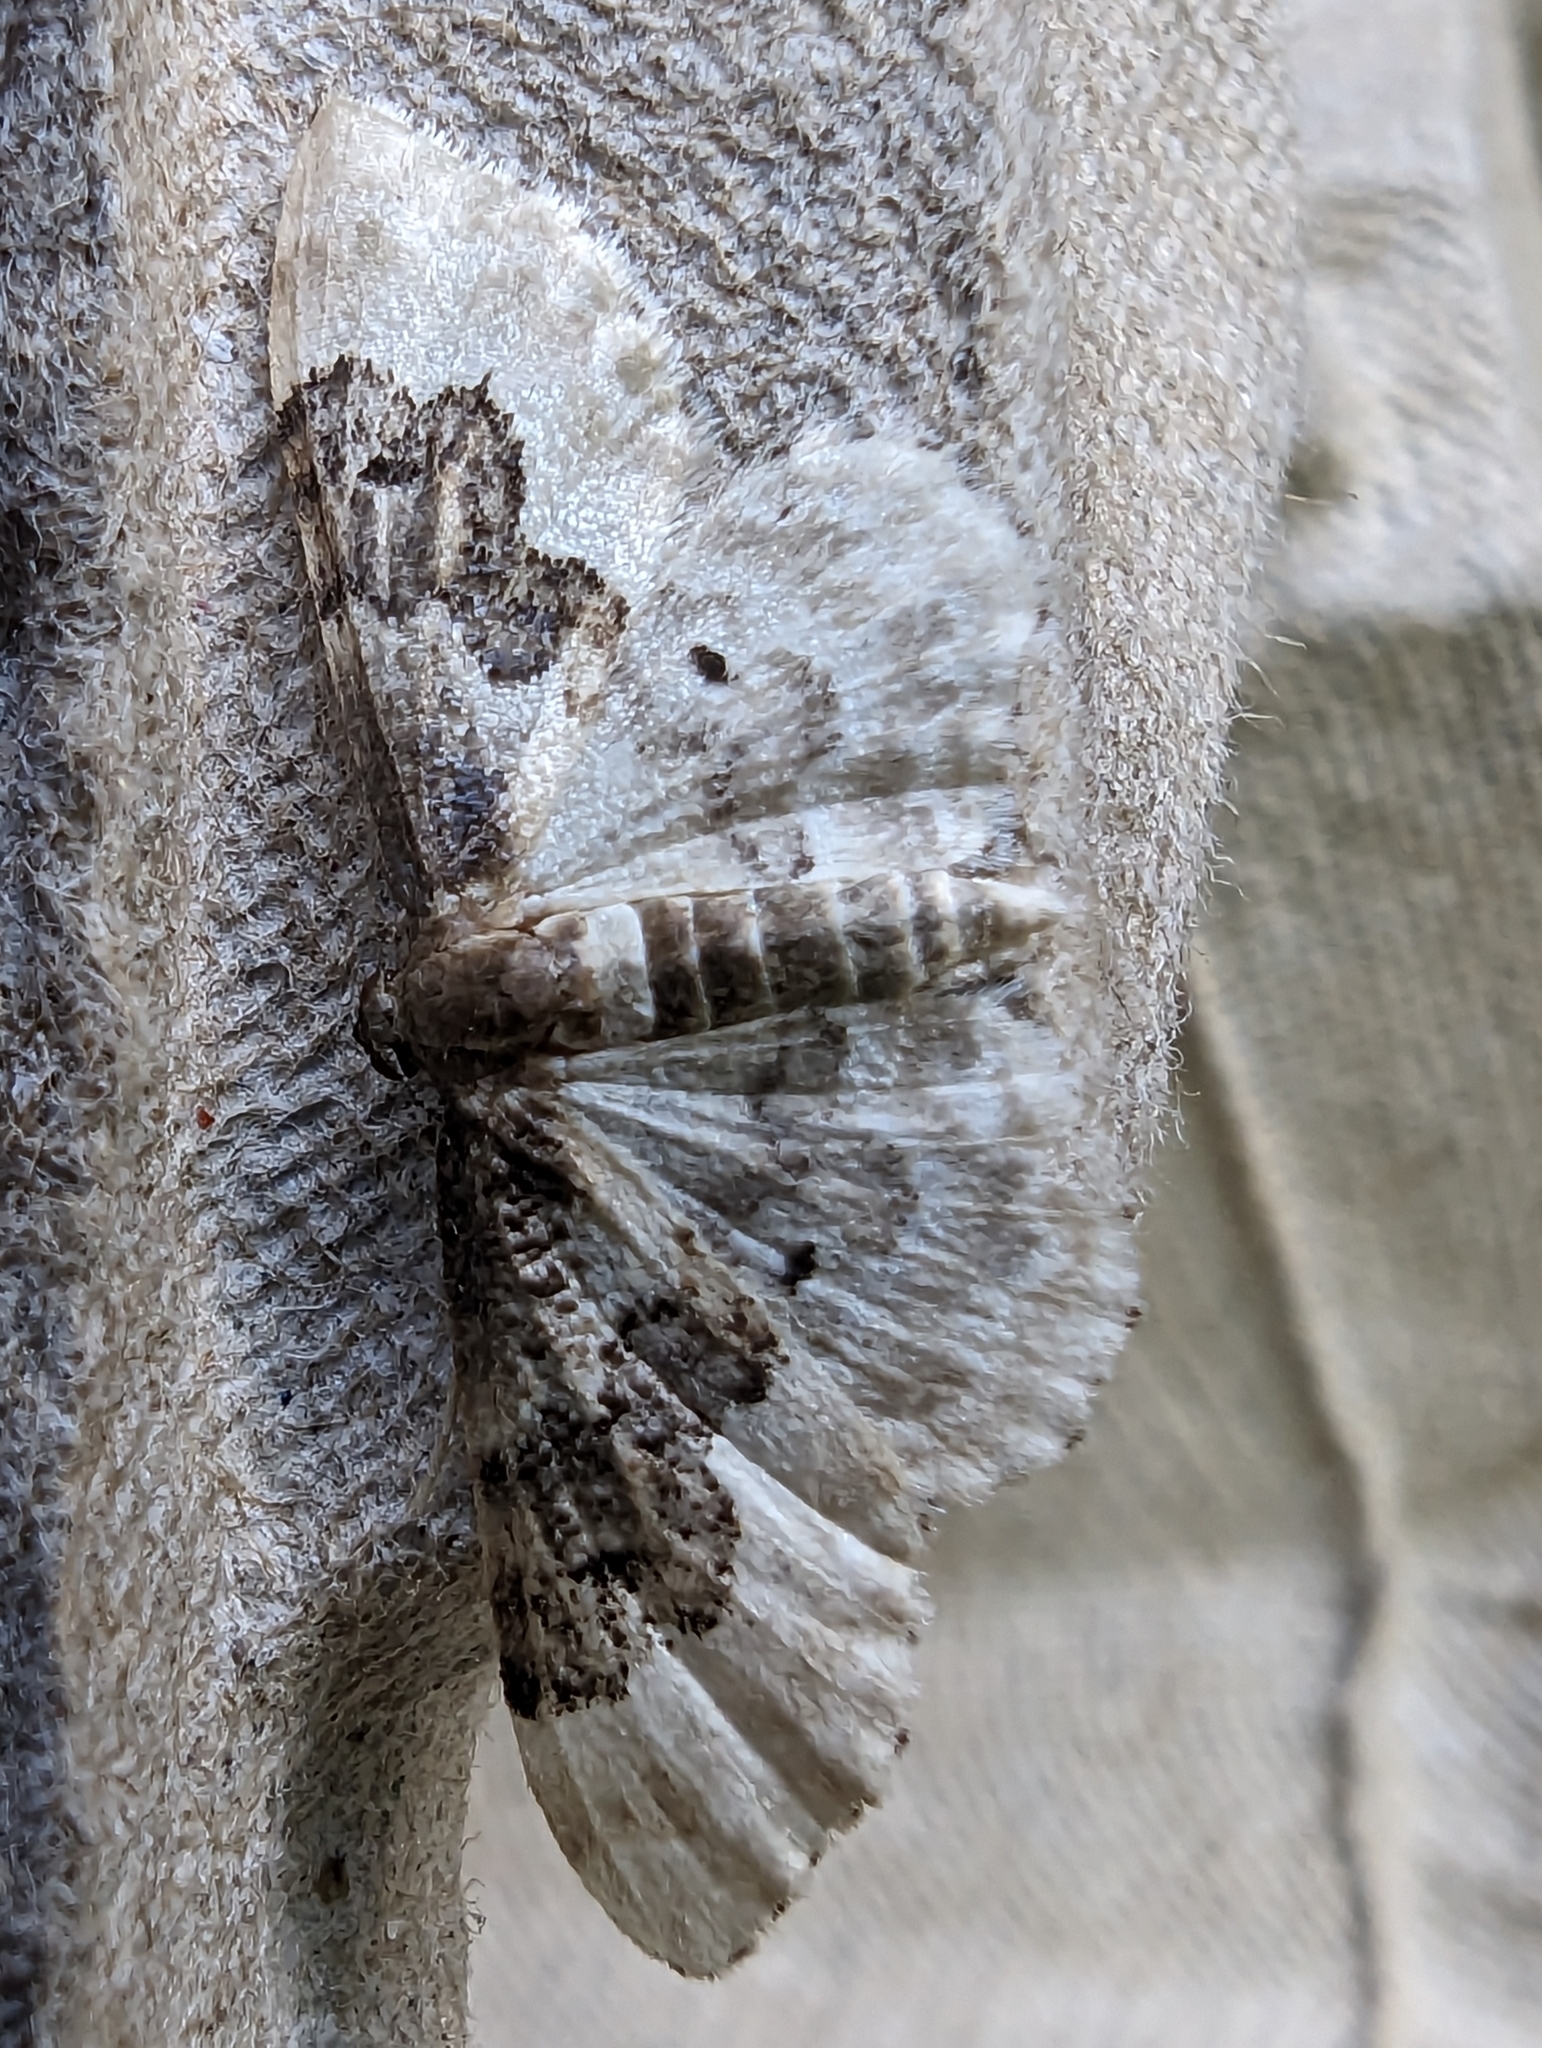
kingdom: Animalia
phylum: Arthropoda
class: Insecta
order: Lepidoptera
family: Geometridae
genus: Idaea
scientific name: Idaea rusticata
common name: Least carpet
